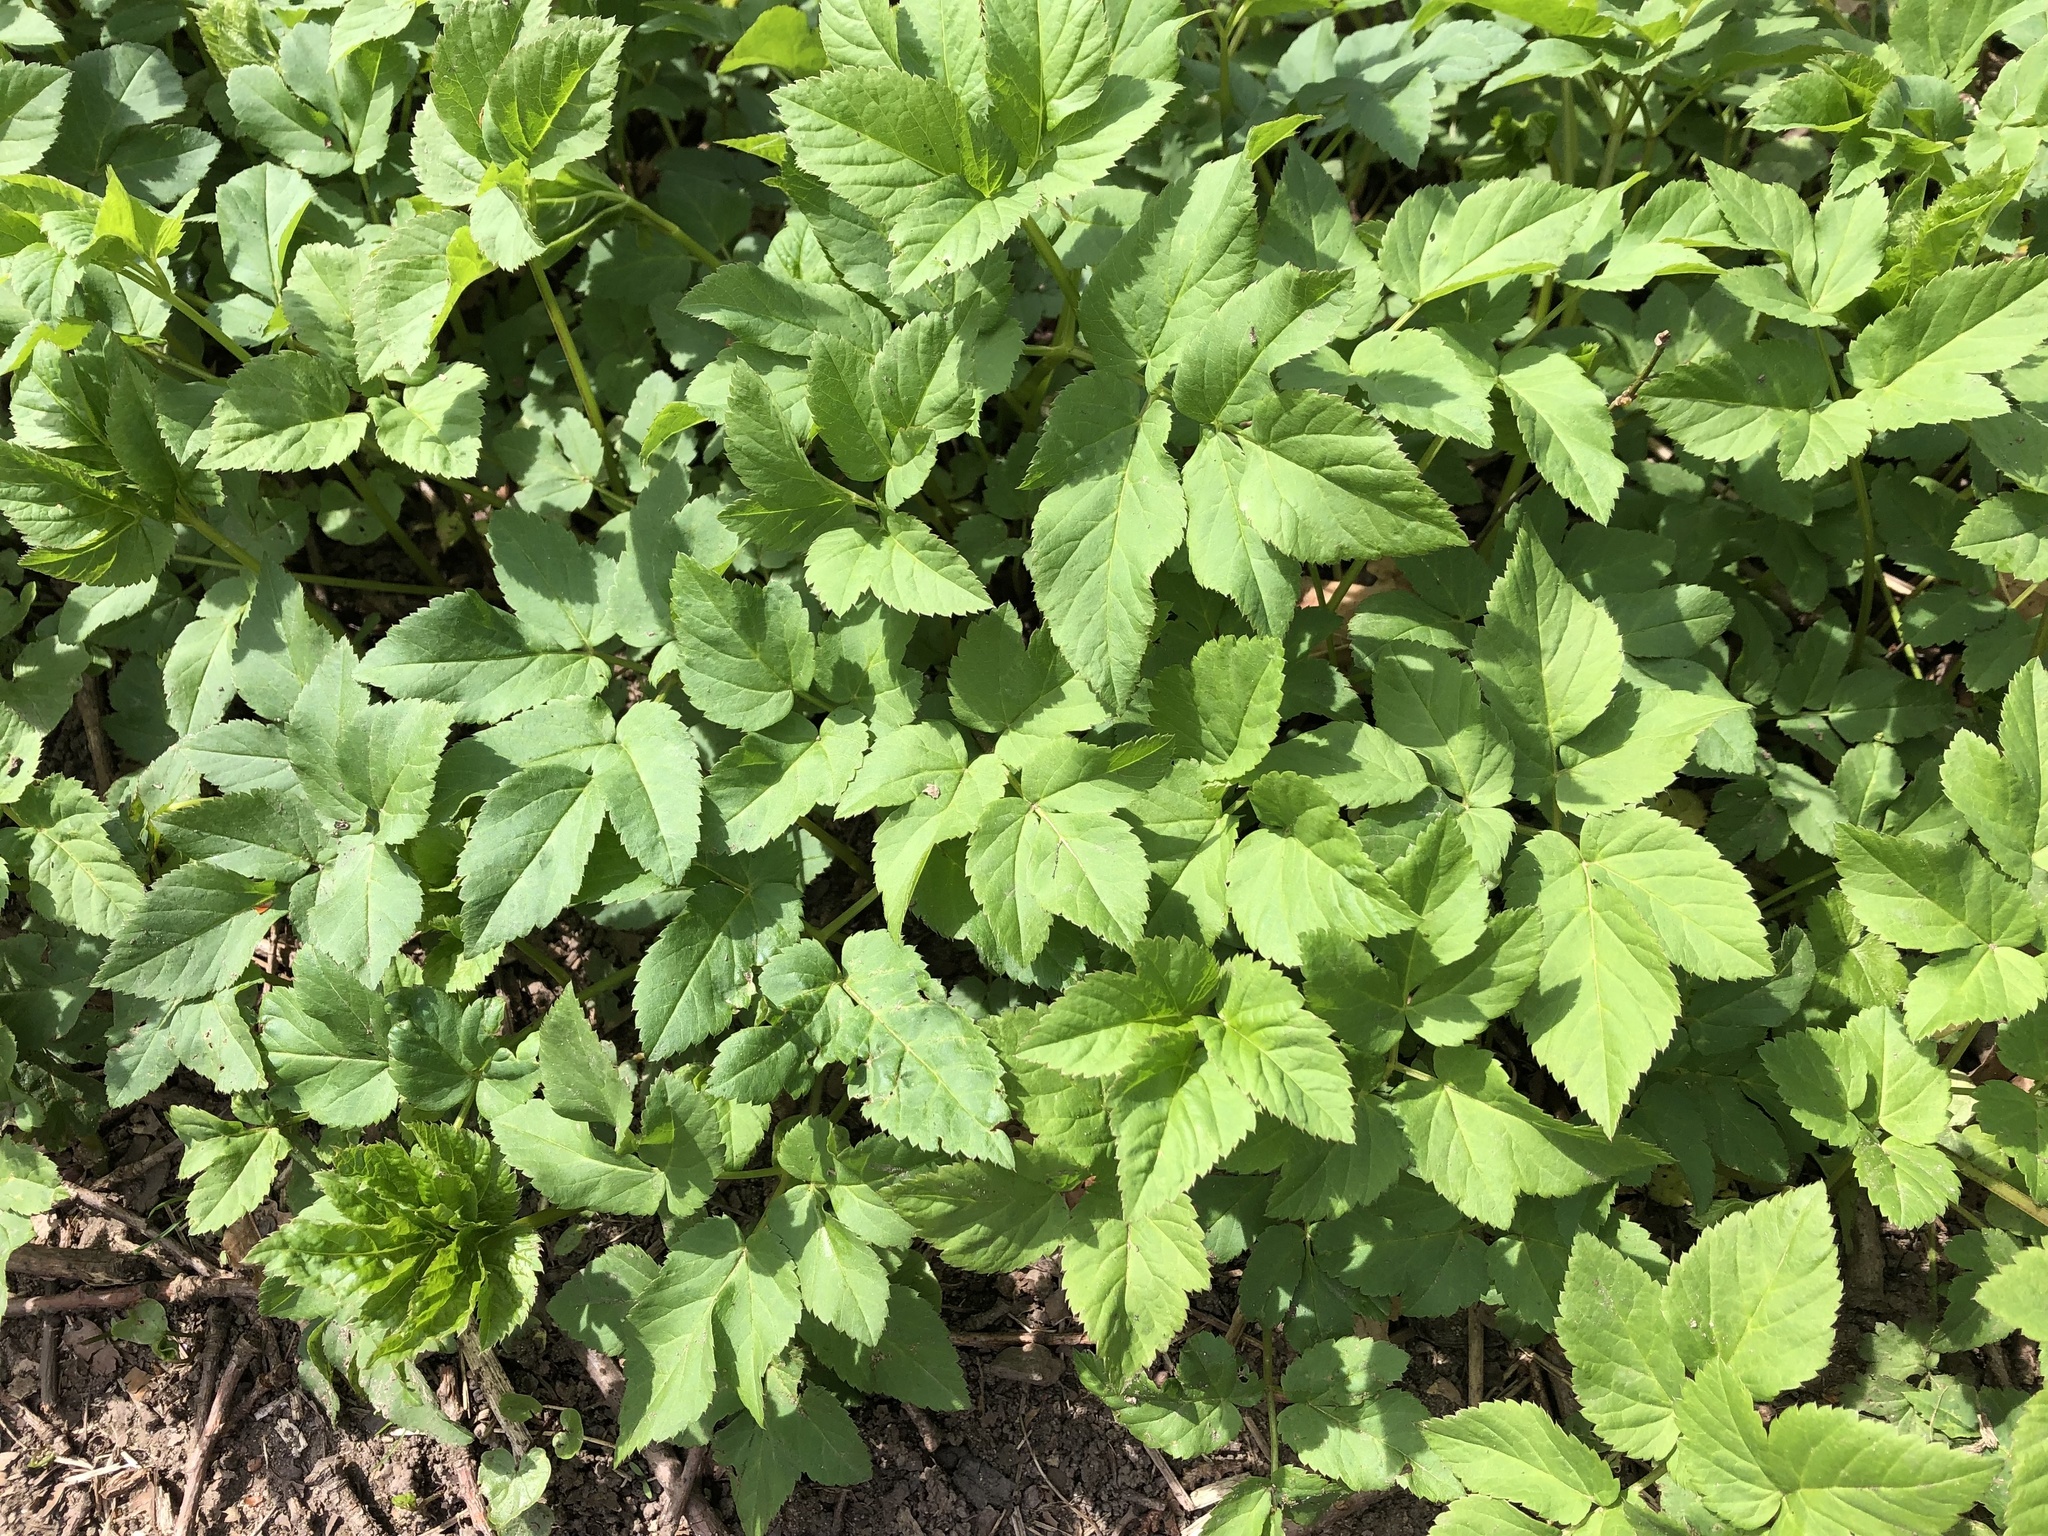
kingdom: Plantae
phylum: Tracheophyta
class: Magnoliopsida
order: Apiales
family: Apiaceae
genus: Aegopodium
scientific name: Aegopodium podagraria
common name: Ground-elder
